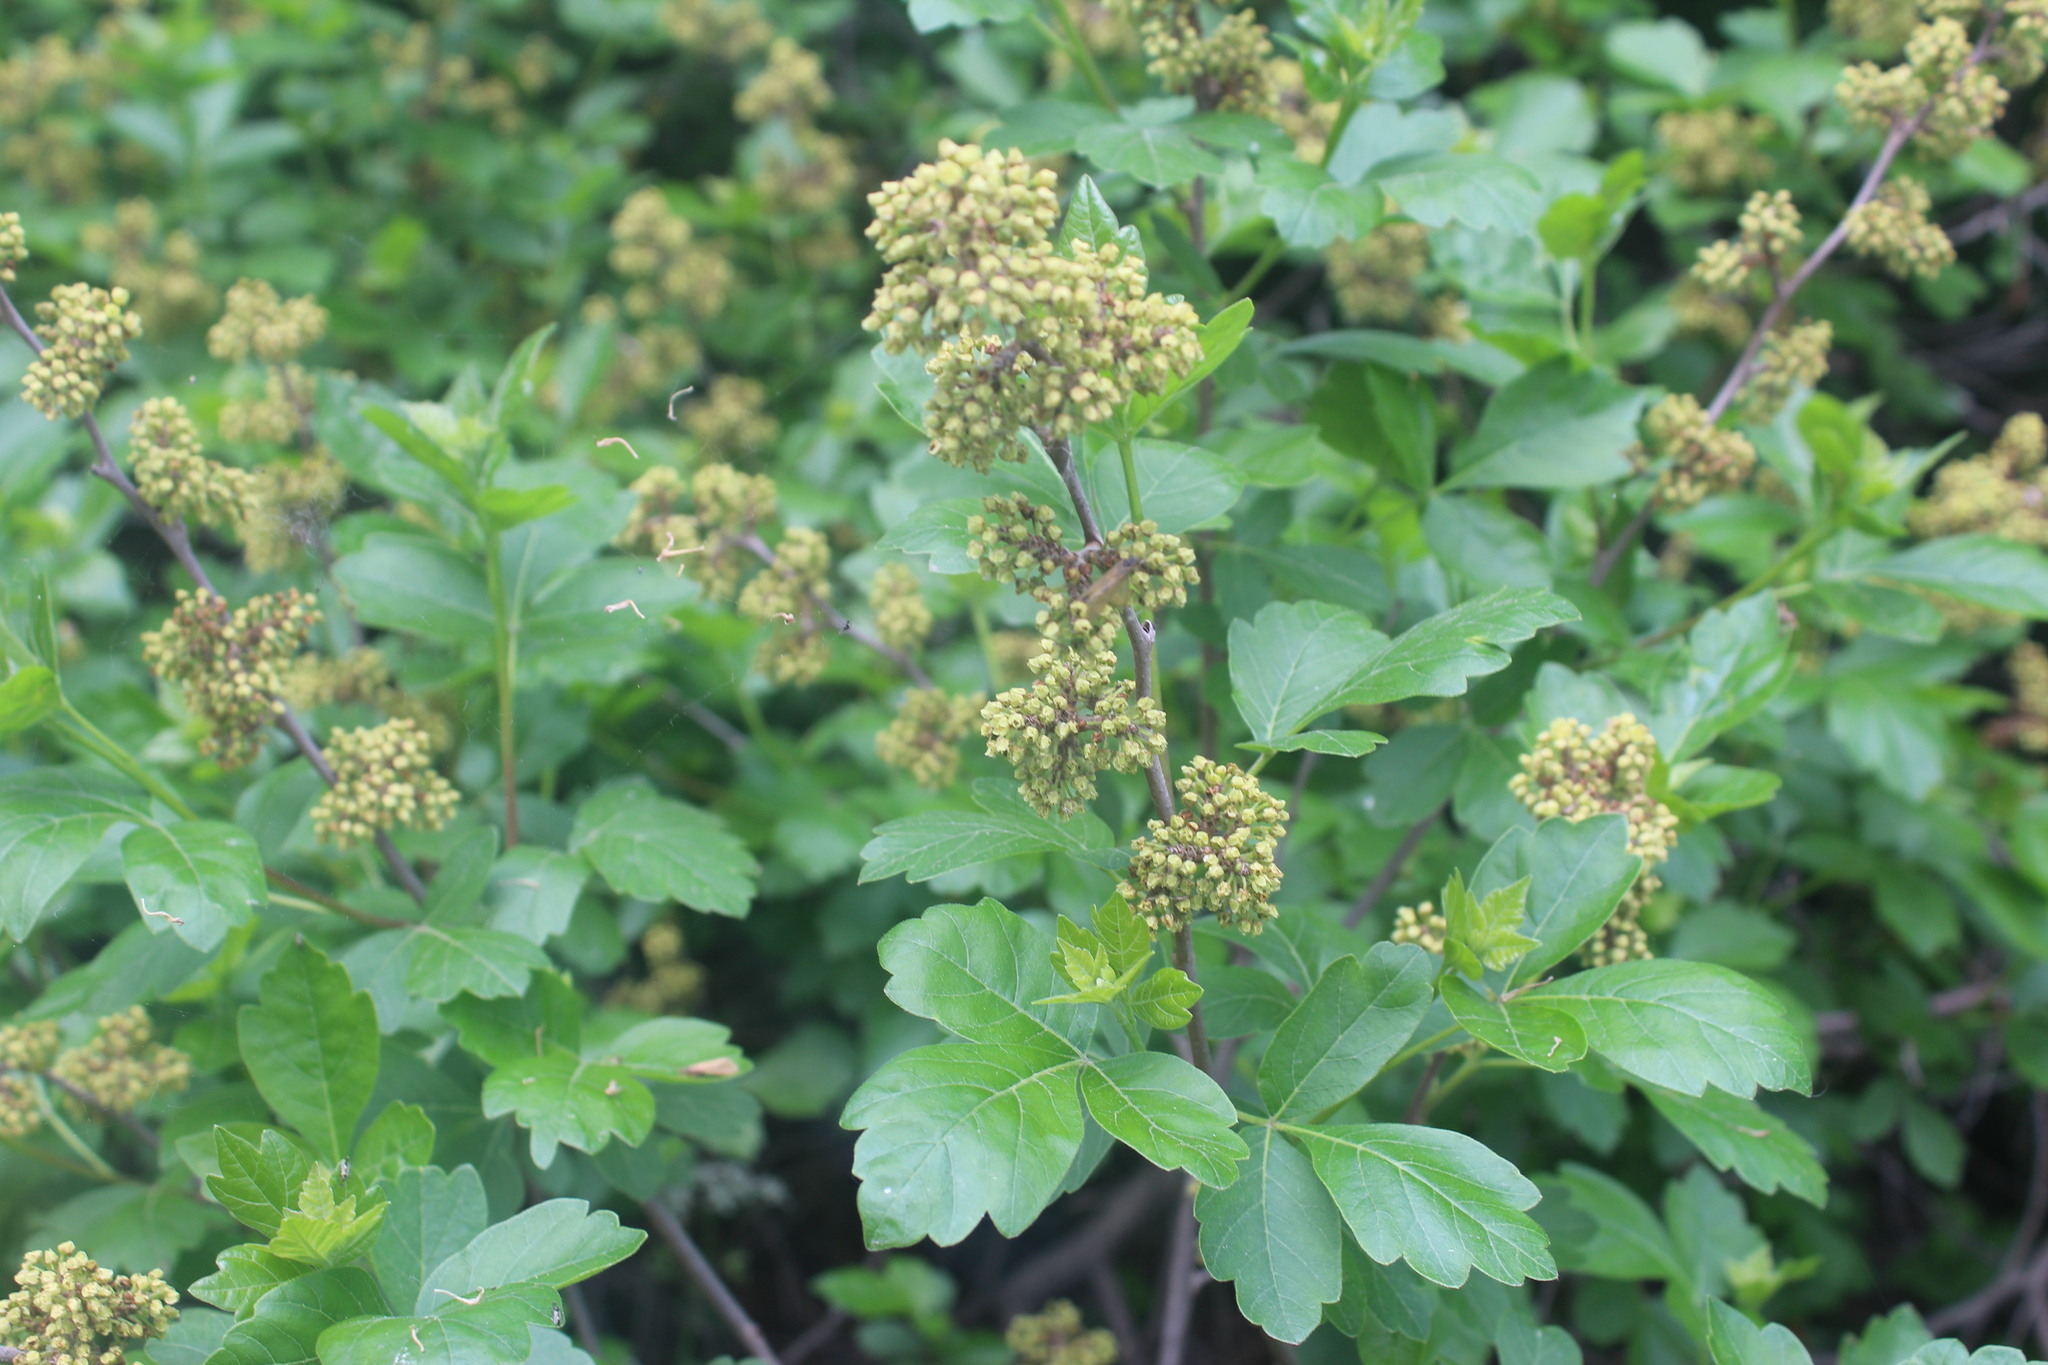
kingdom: Plantae
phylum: Tracheophyta
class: Magnoliopsida
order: Sapindales
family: Anacardiaceae
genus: Rhus
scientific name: Rhus aromatica
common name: Aromatic sumac
